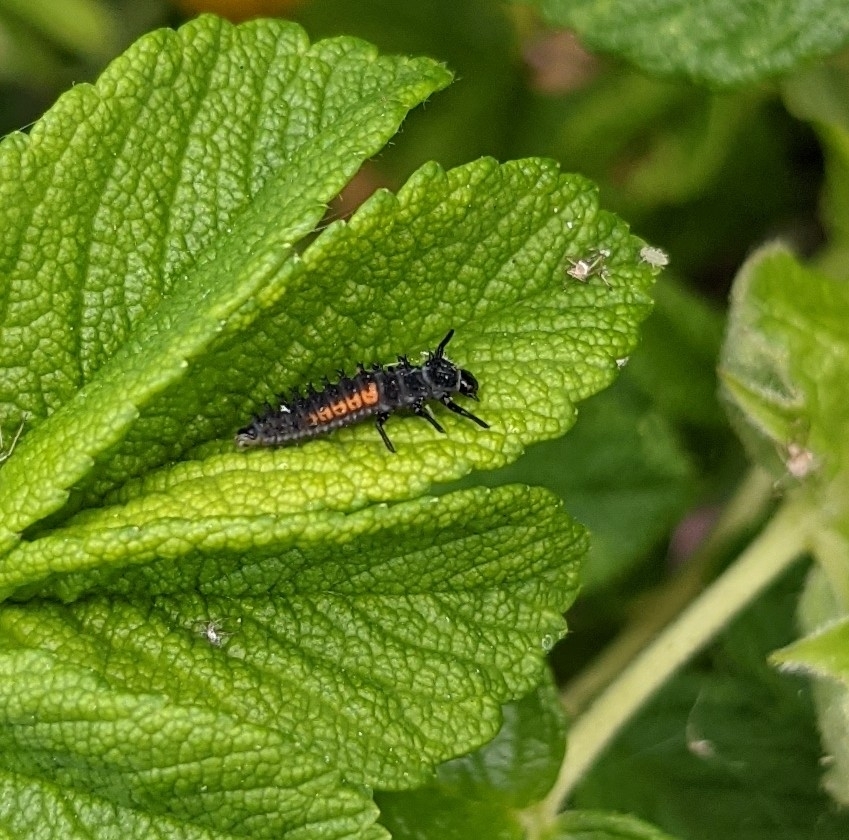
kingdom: Animalia
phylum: Arthropoda
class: Insecta
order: Coleoptera
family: Coccinellidae
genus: Harmonia
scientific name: Harmonia axyridis
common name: Harlequin ladybird
